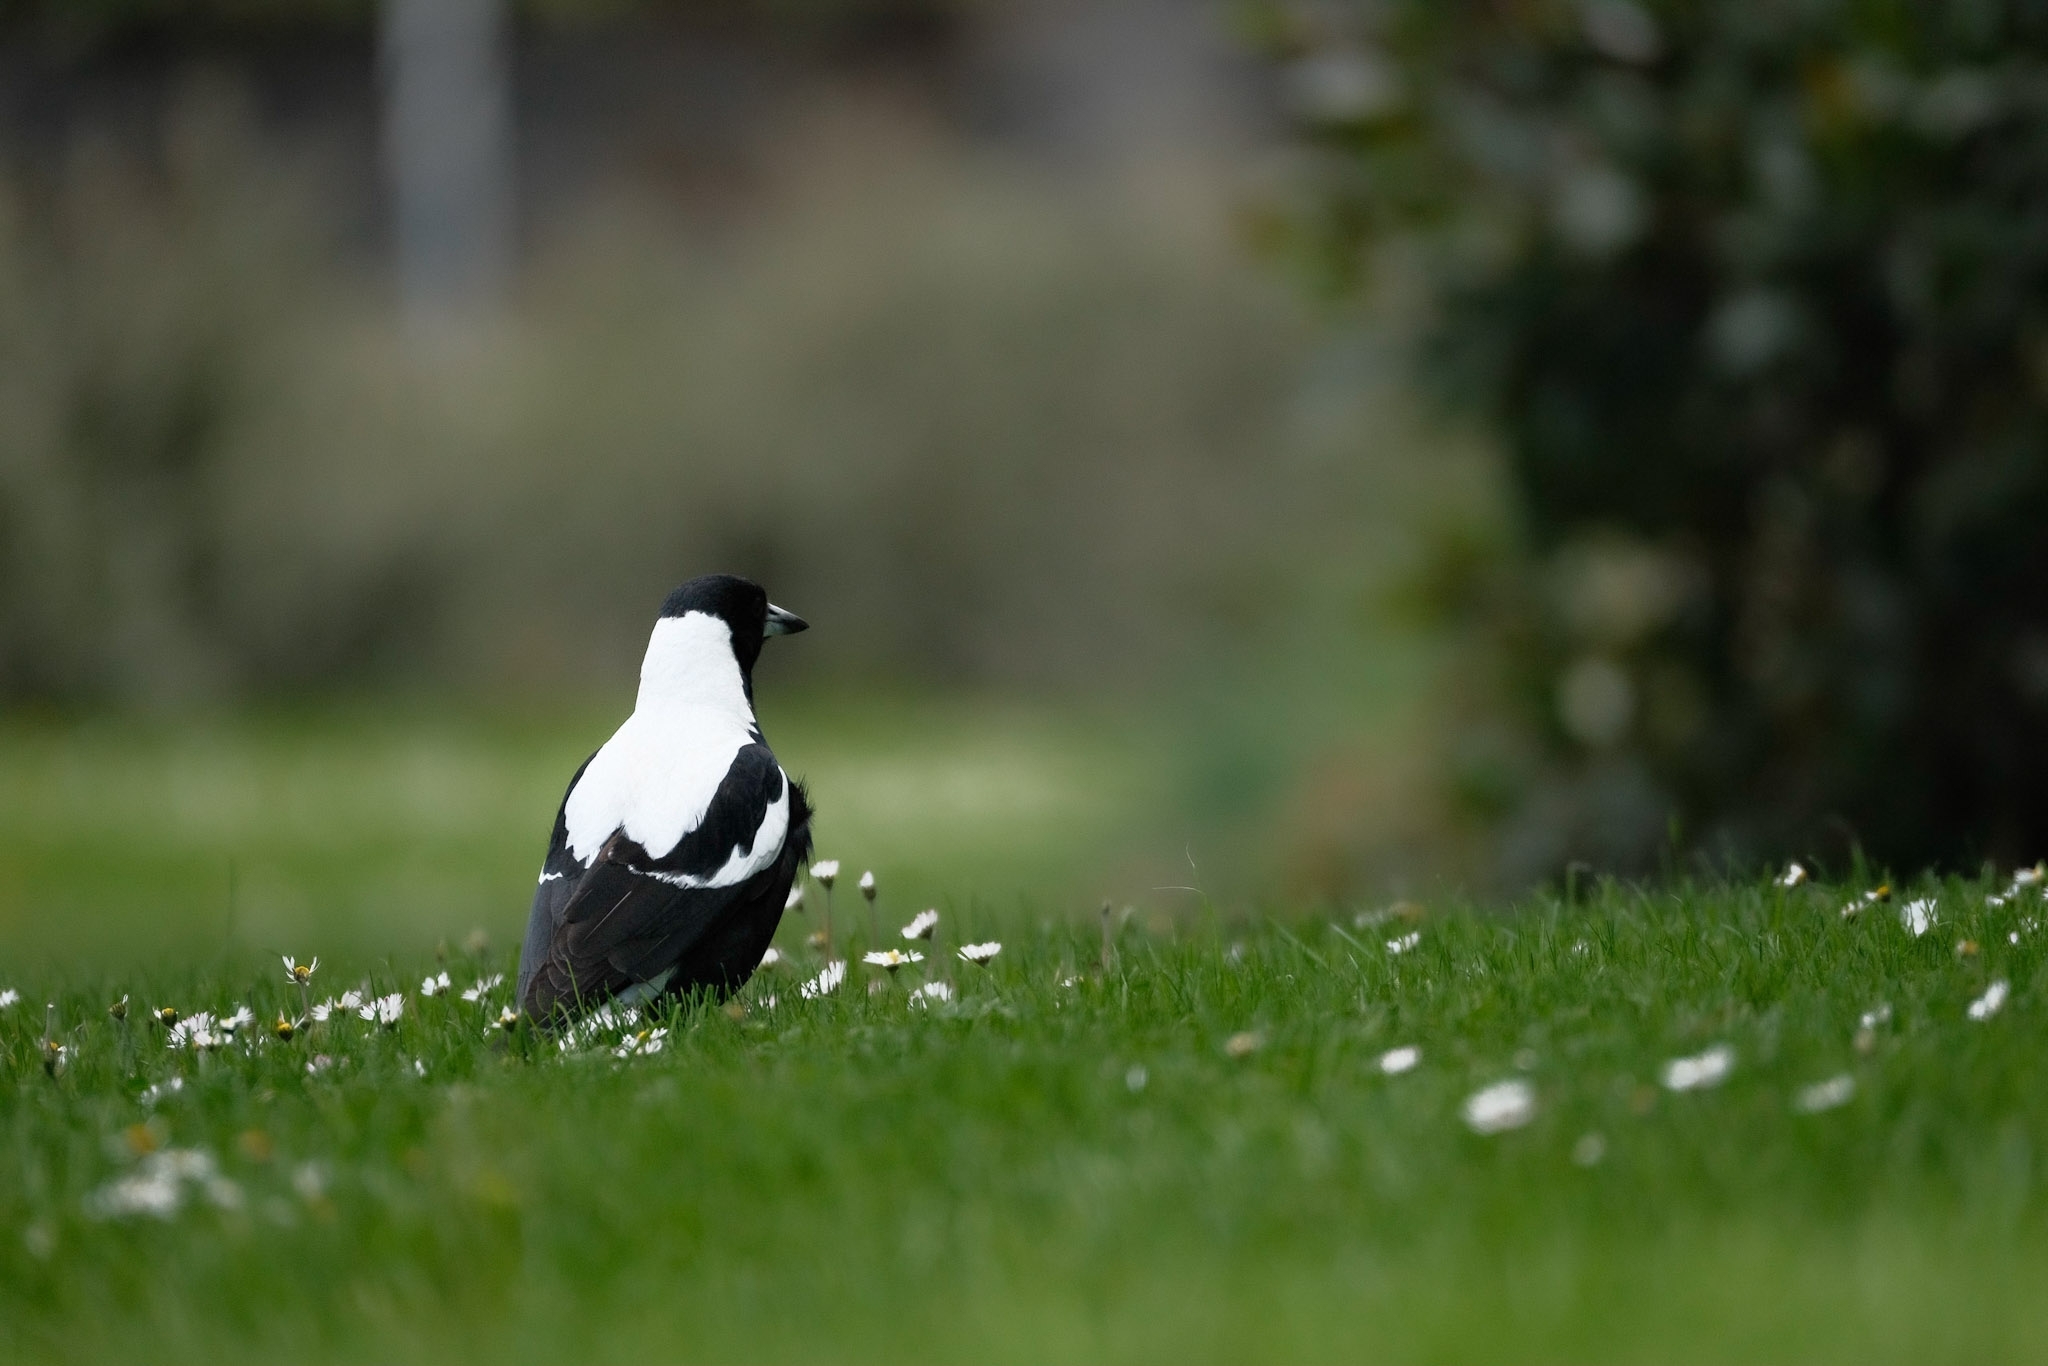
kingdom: Animalia
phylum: Chordata
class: Aves
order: Passeriformes
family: Cracticidae
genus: Gymnorhina
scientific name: Gymnorhina tibicen
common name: Australian magpie
